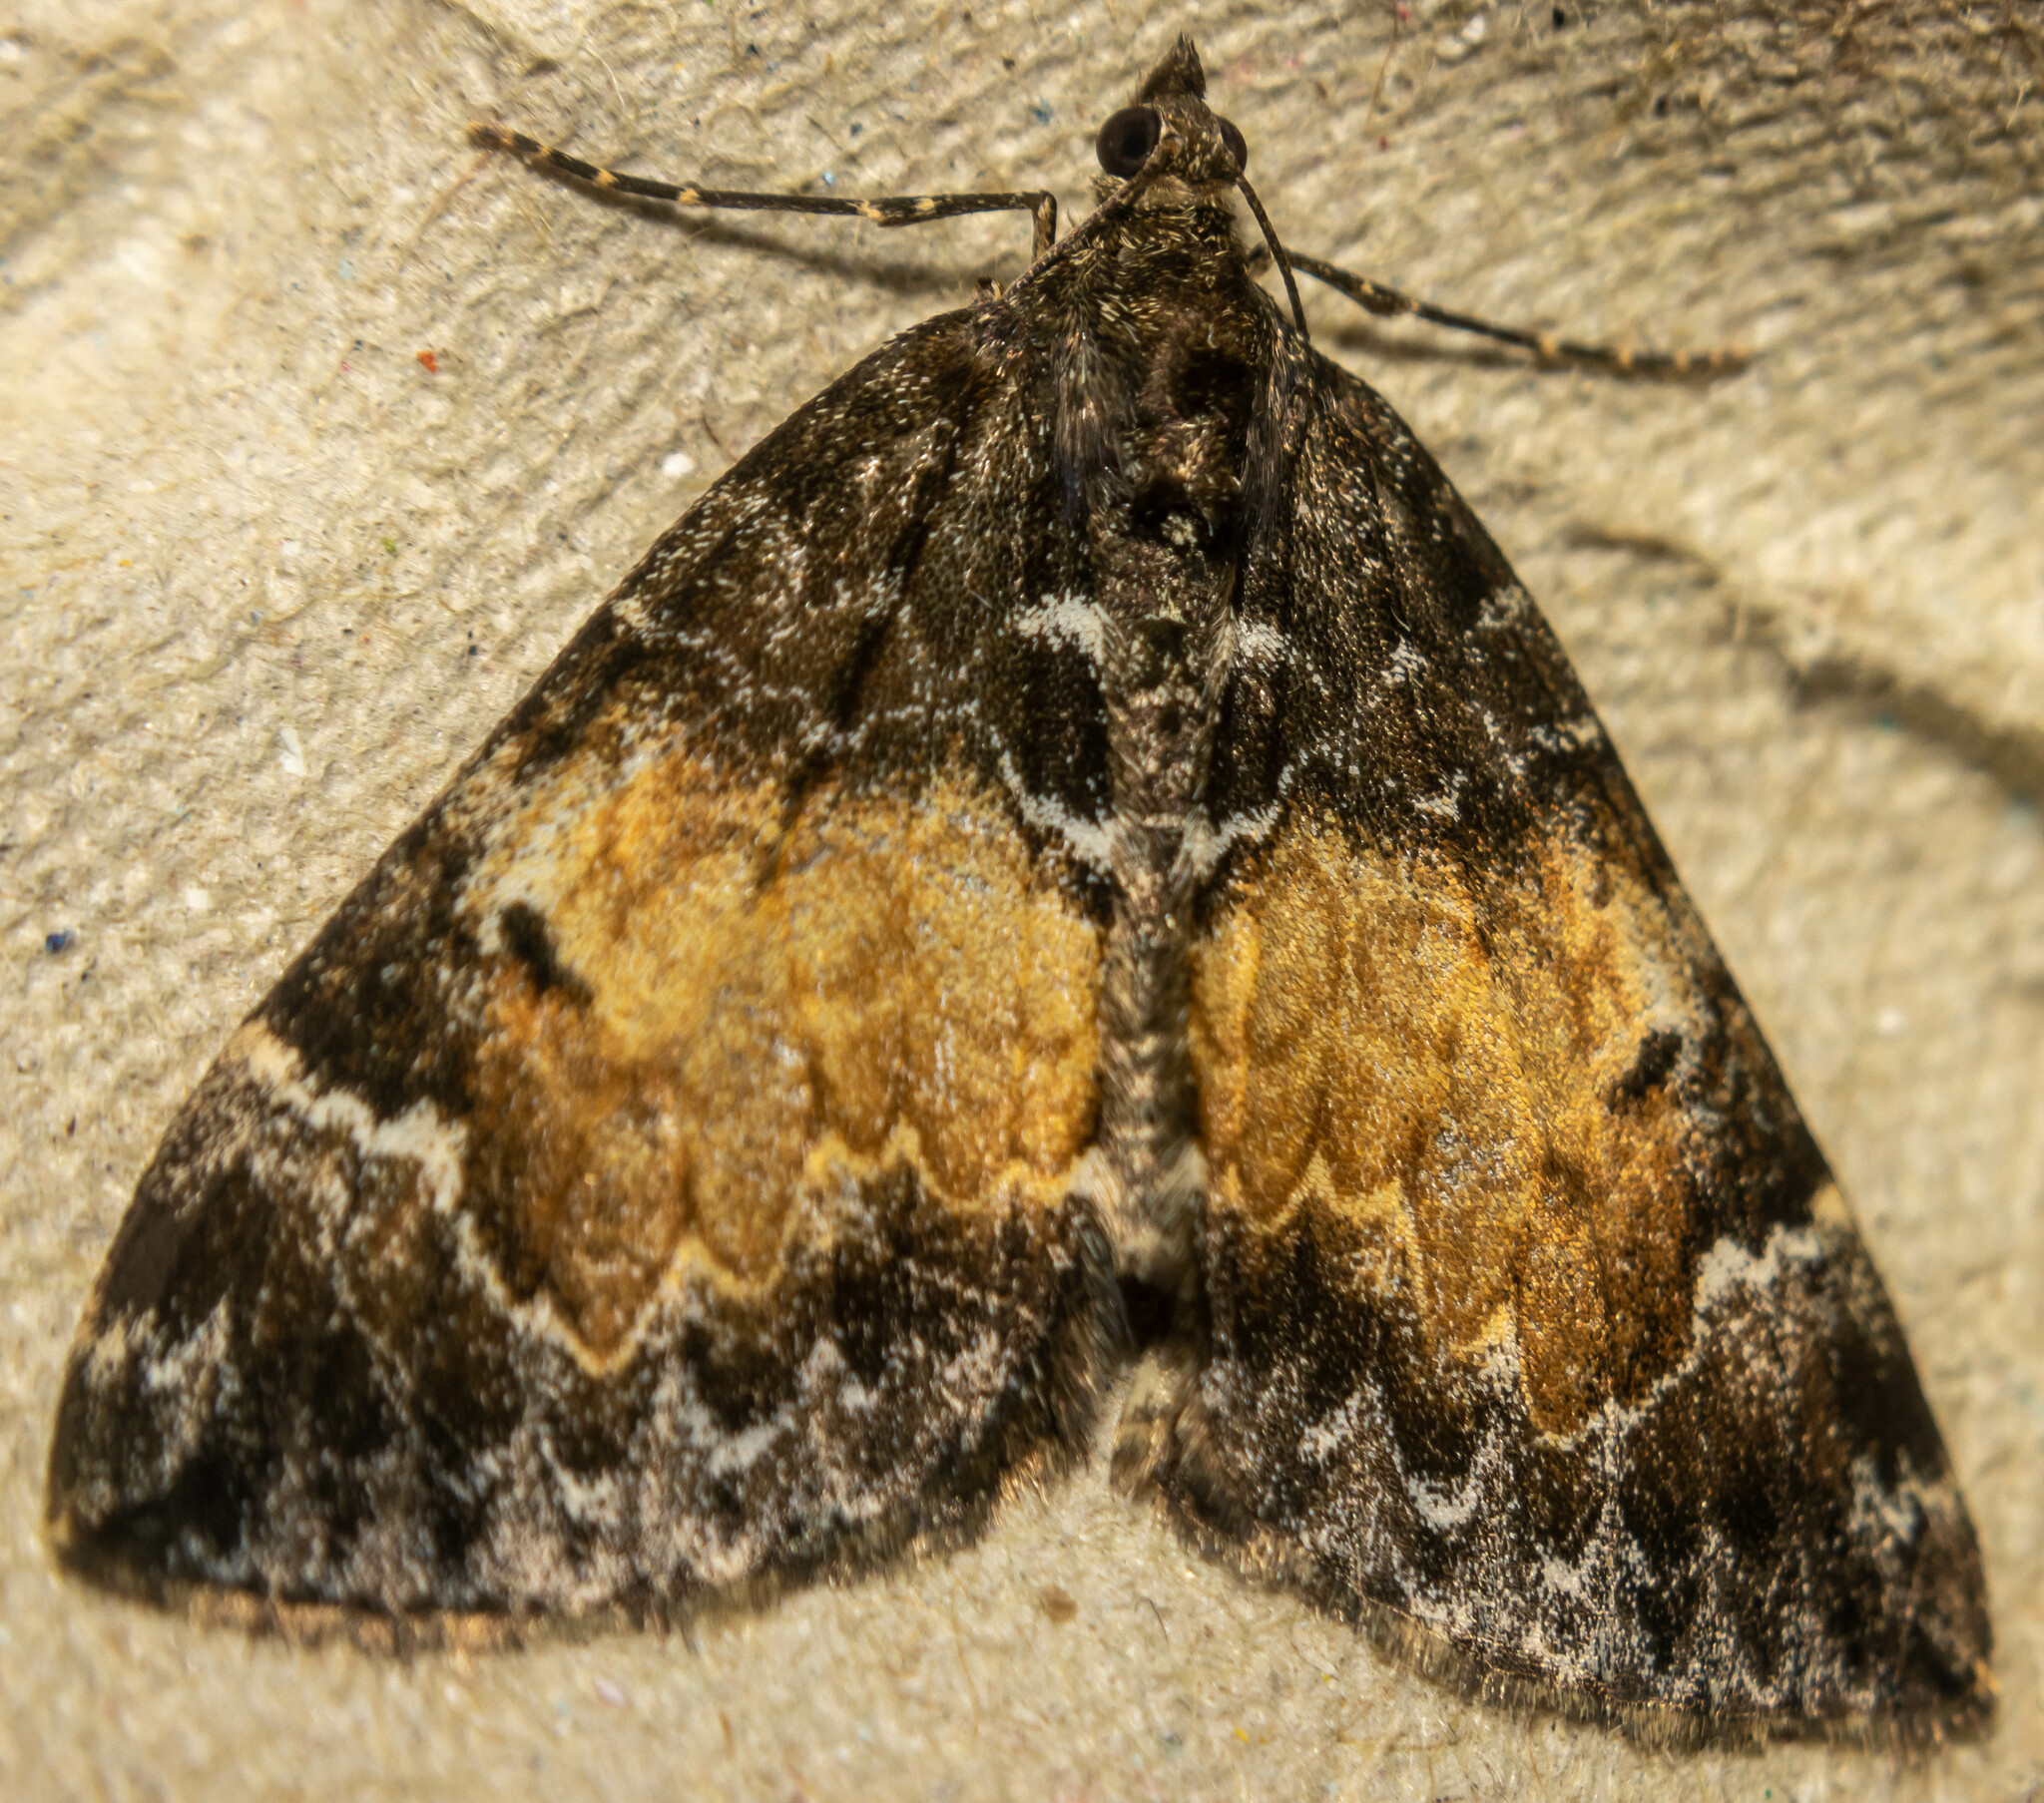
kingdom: Animalia
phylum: Arthropoda
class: Insecta
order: Lepidoptera
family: Geometridae
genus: Dysstroma
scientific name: Dysstroma truncata
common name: Common marbled carpet
